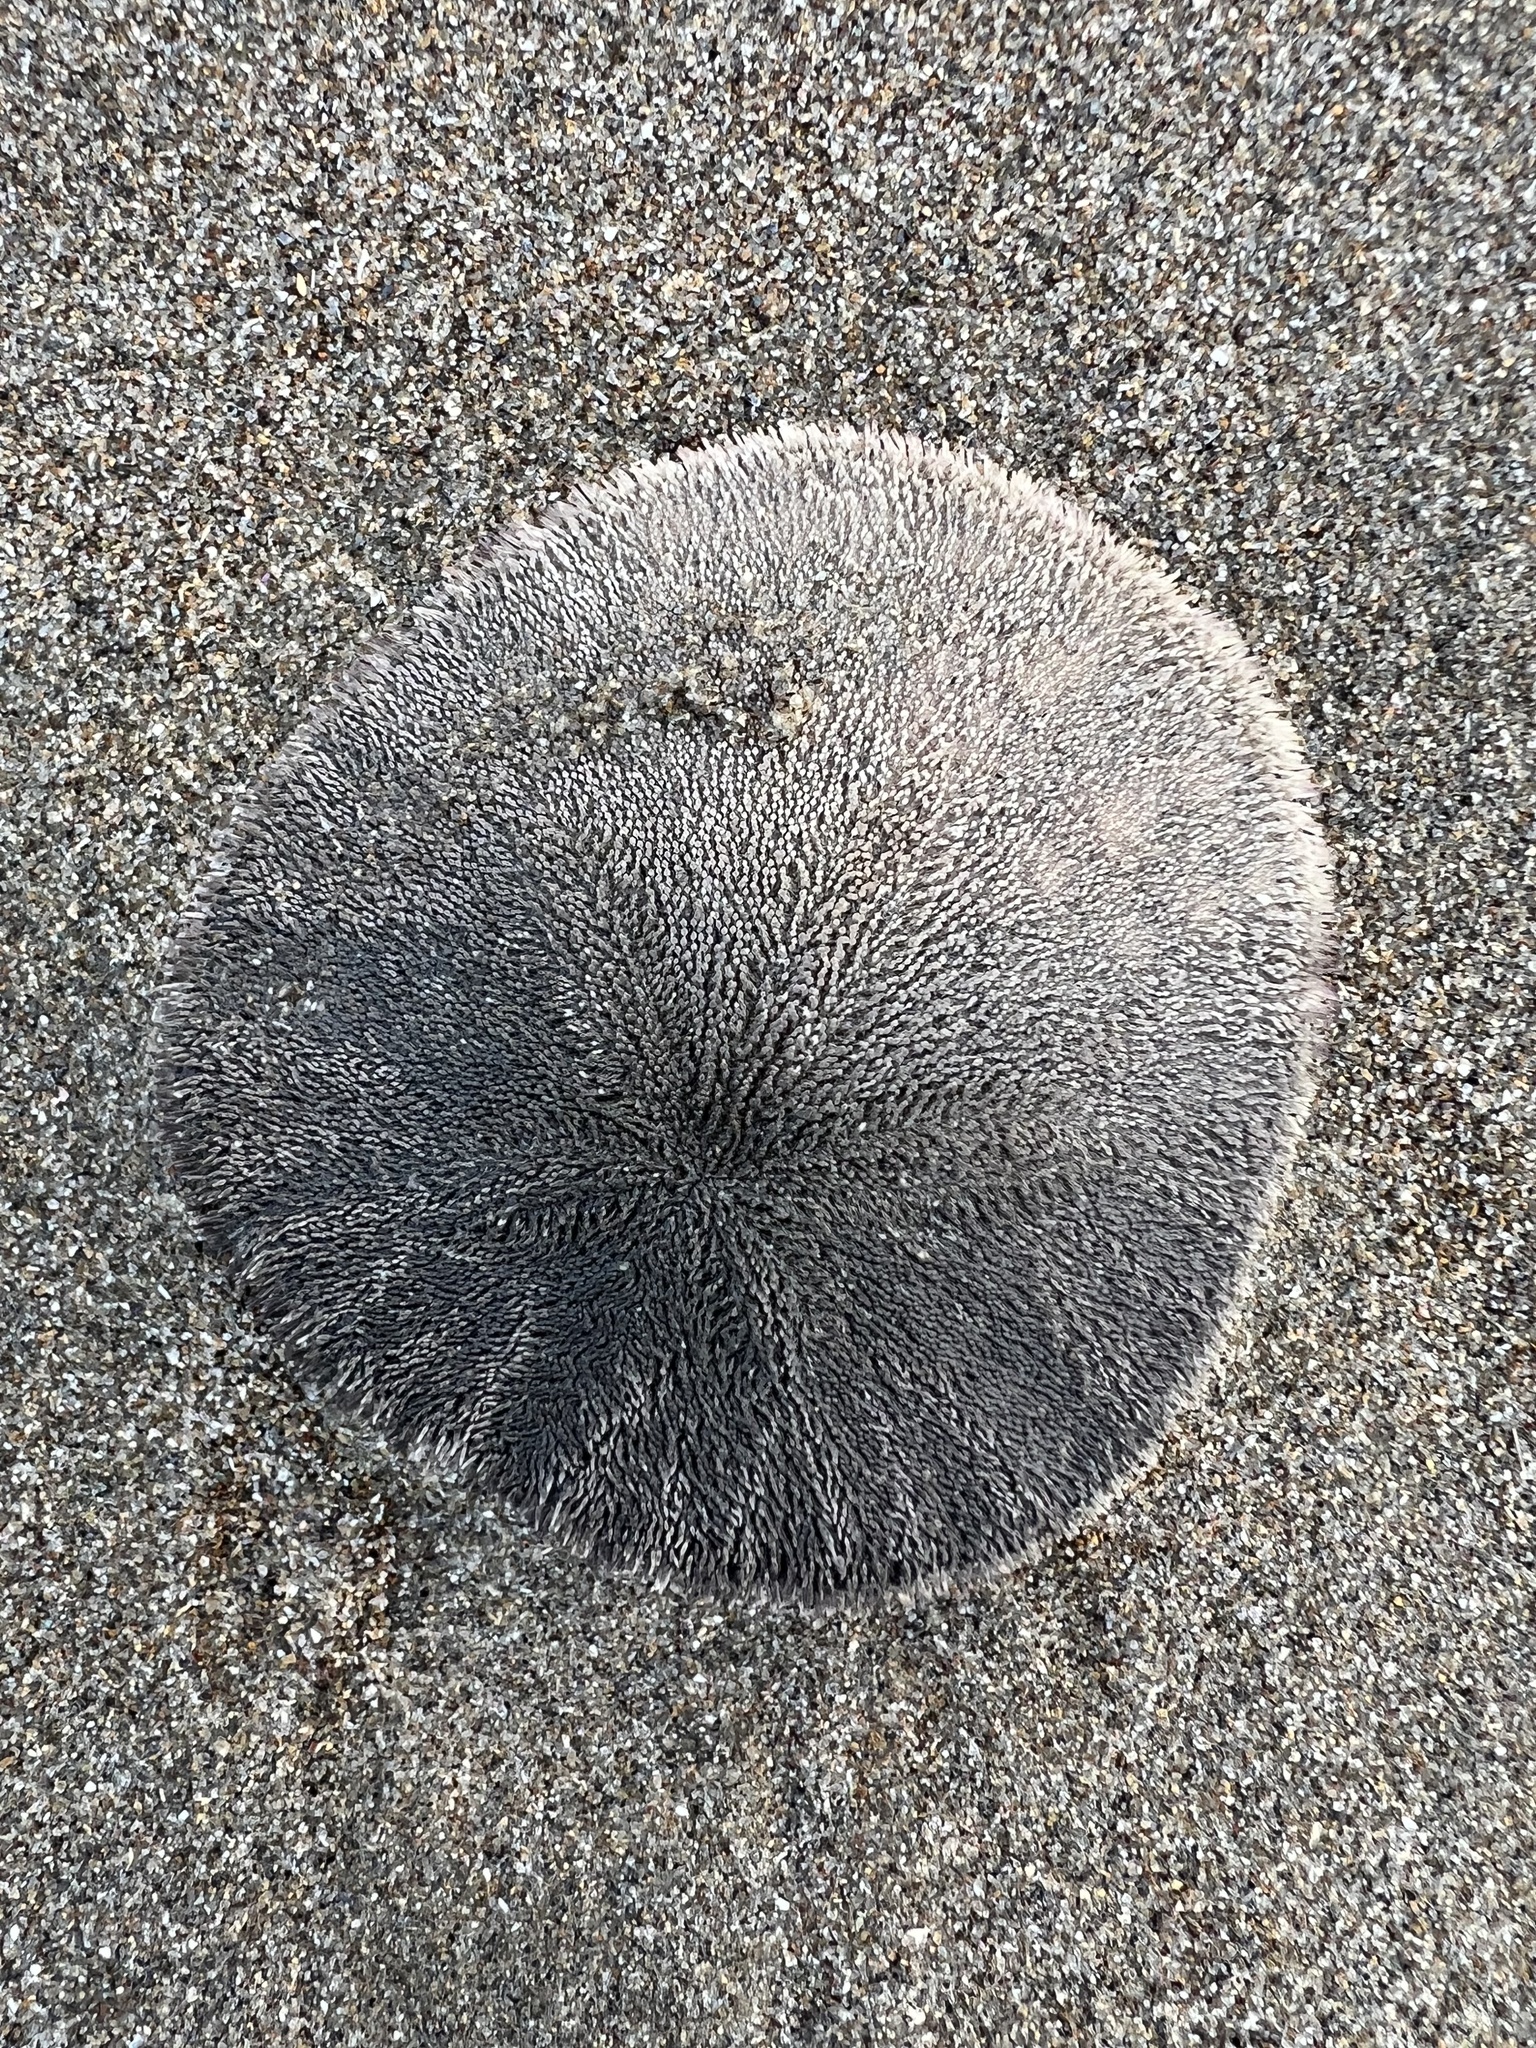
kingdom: Animalia
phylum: Echinodermata
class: Echinoidea
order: Echinolampadacea
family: Dendrasteridae
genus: Dendraster
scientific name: Dendraster excentricus
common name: Eccentric sand dollar sea urchin
